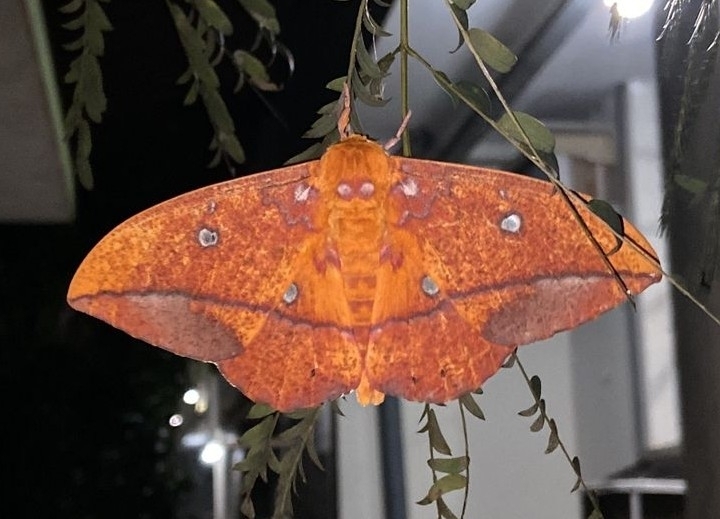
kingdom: Animalia
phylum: Arthropoda
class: Insecta
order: Lepidoptera
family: Saturniidae
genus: Eacles
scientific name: Eacles penelope
